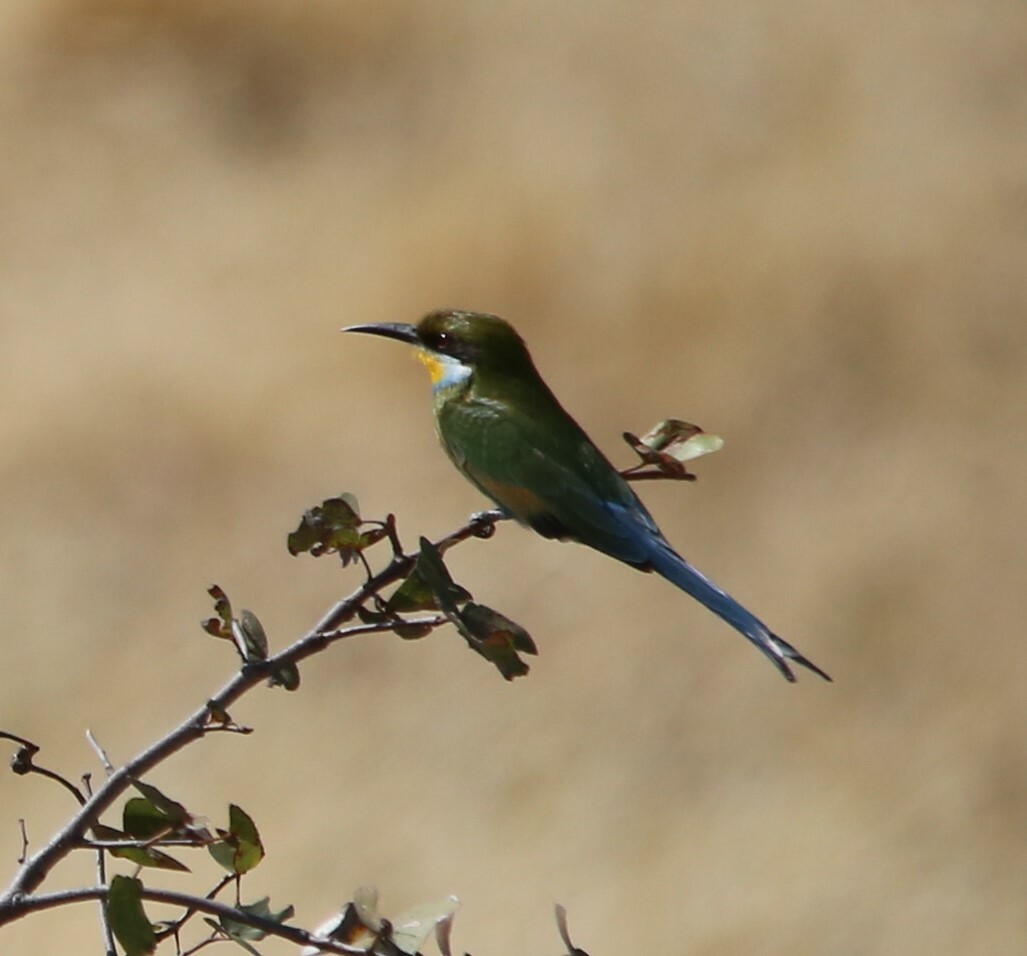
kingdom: Animalia
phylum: Chordata
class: Aves
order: Coraciiformes
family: Meropidae
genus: Merops
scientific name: Merops hirundineus
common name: Swallow-tailed bee-eater
